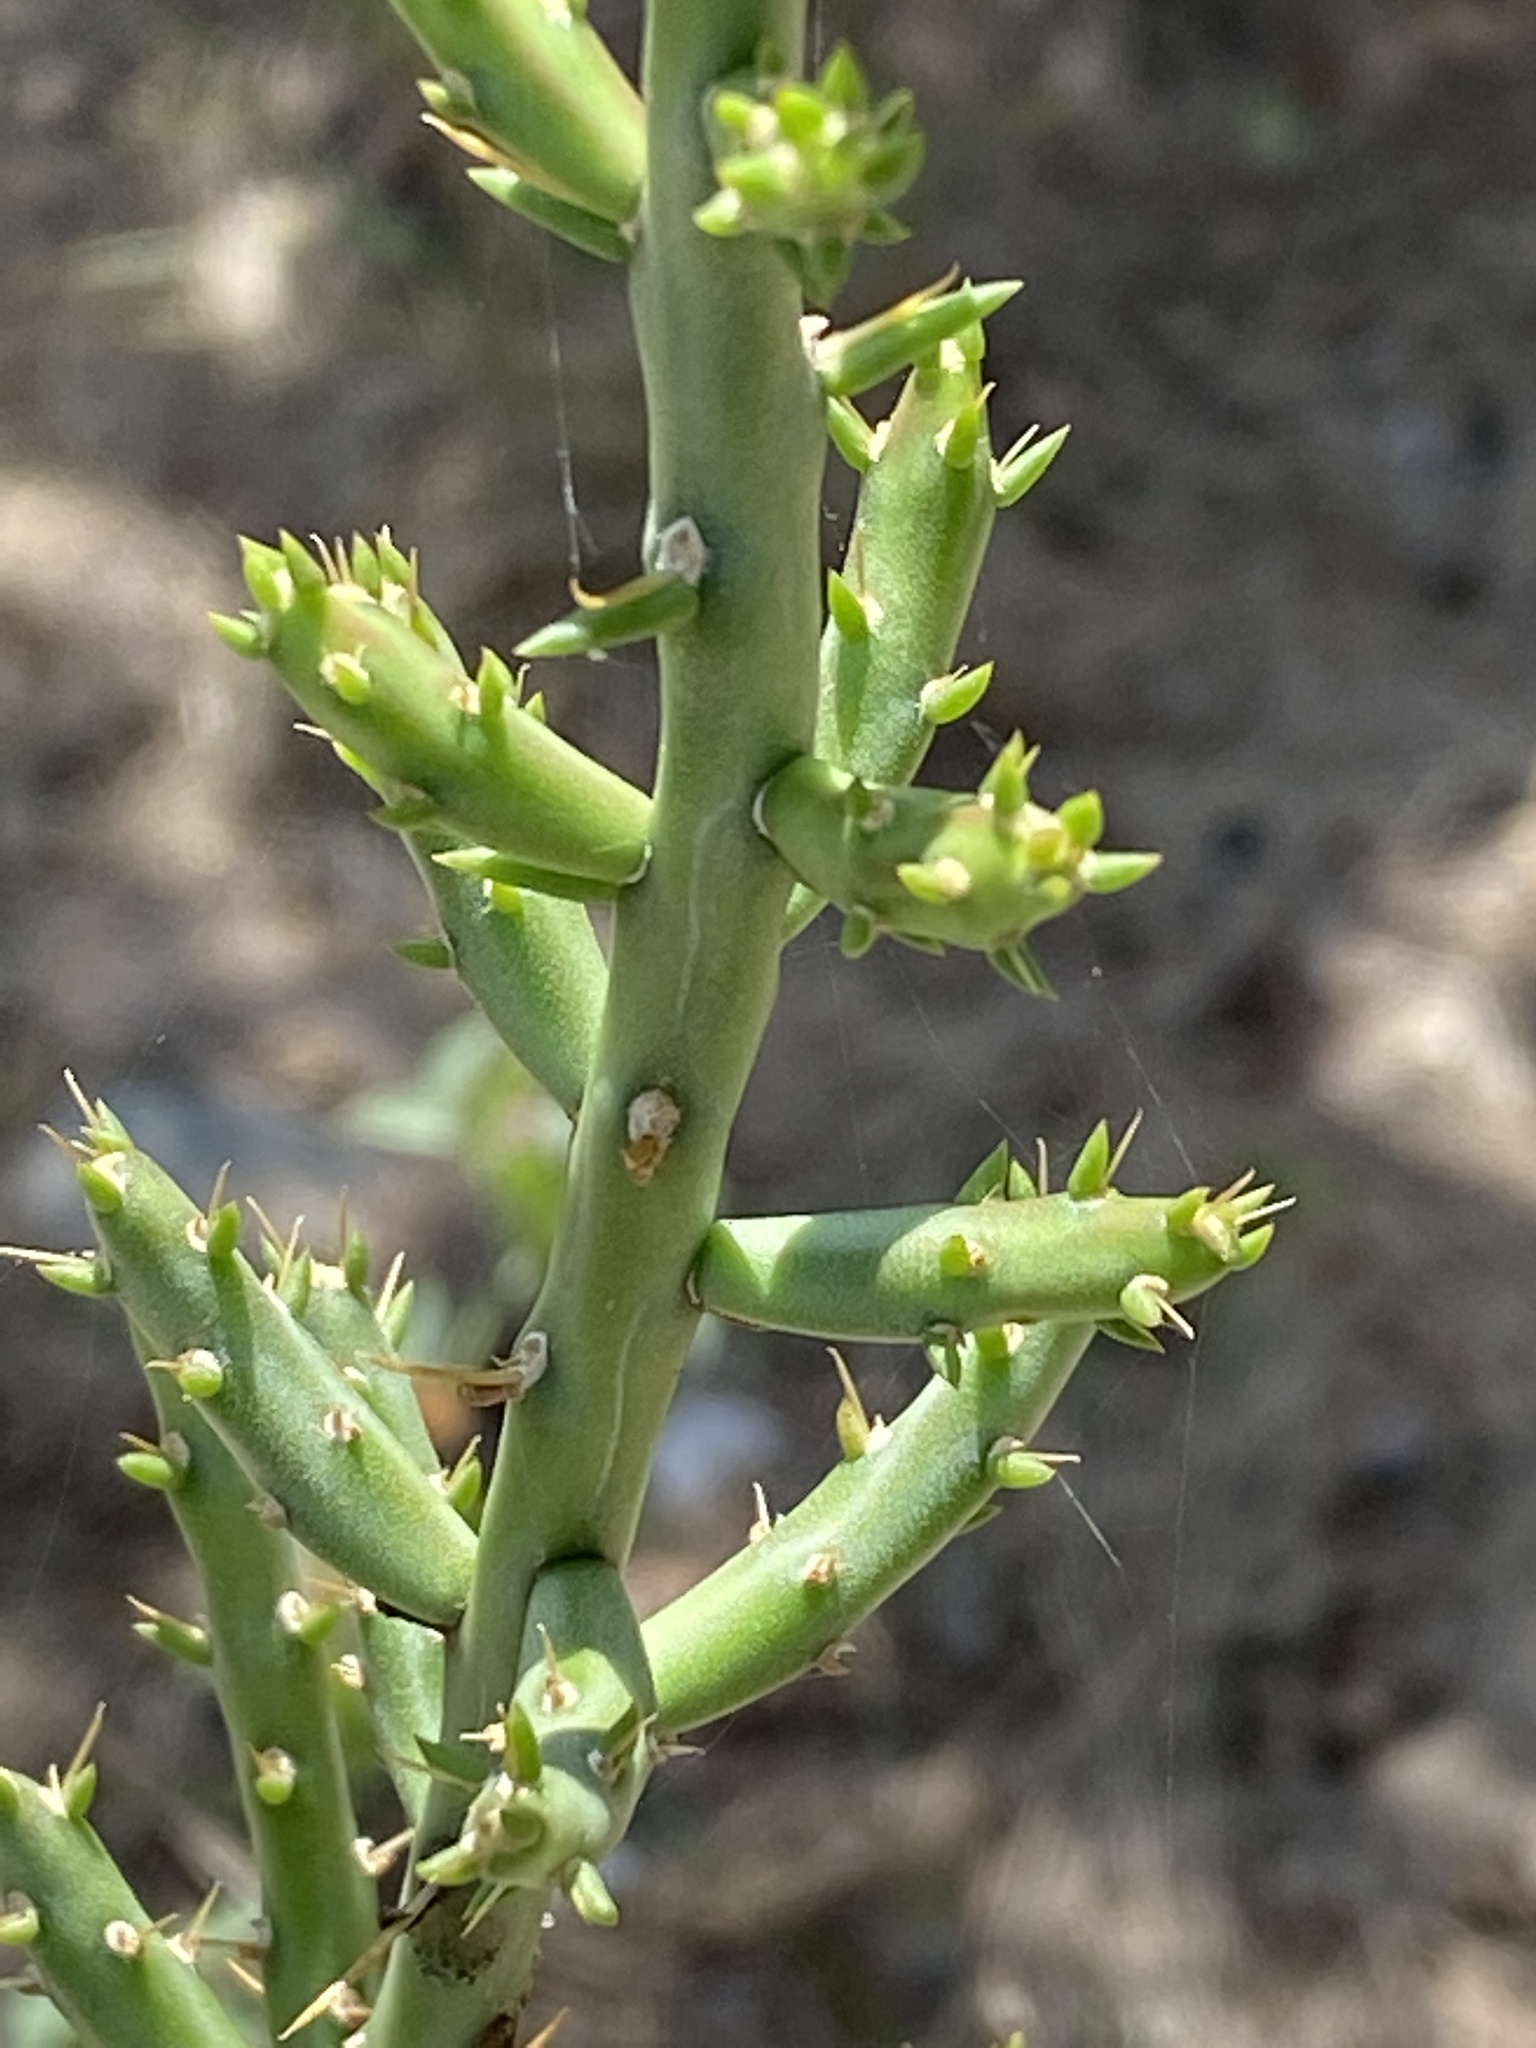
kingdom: Plantae
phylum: Tracheophyta
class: Magnoliopsida
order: Caryophyllales
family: Cactaceae
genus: Cylindropuntia
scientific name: Cylindropuntia leptocaulis
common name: Christmas cactus
